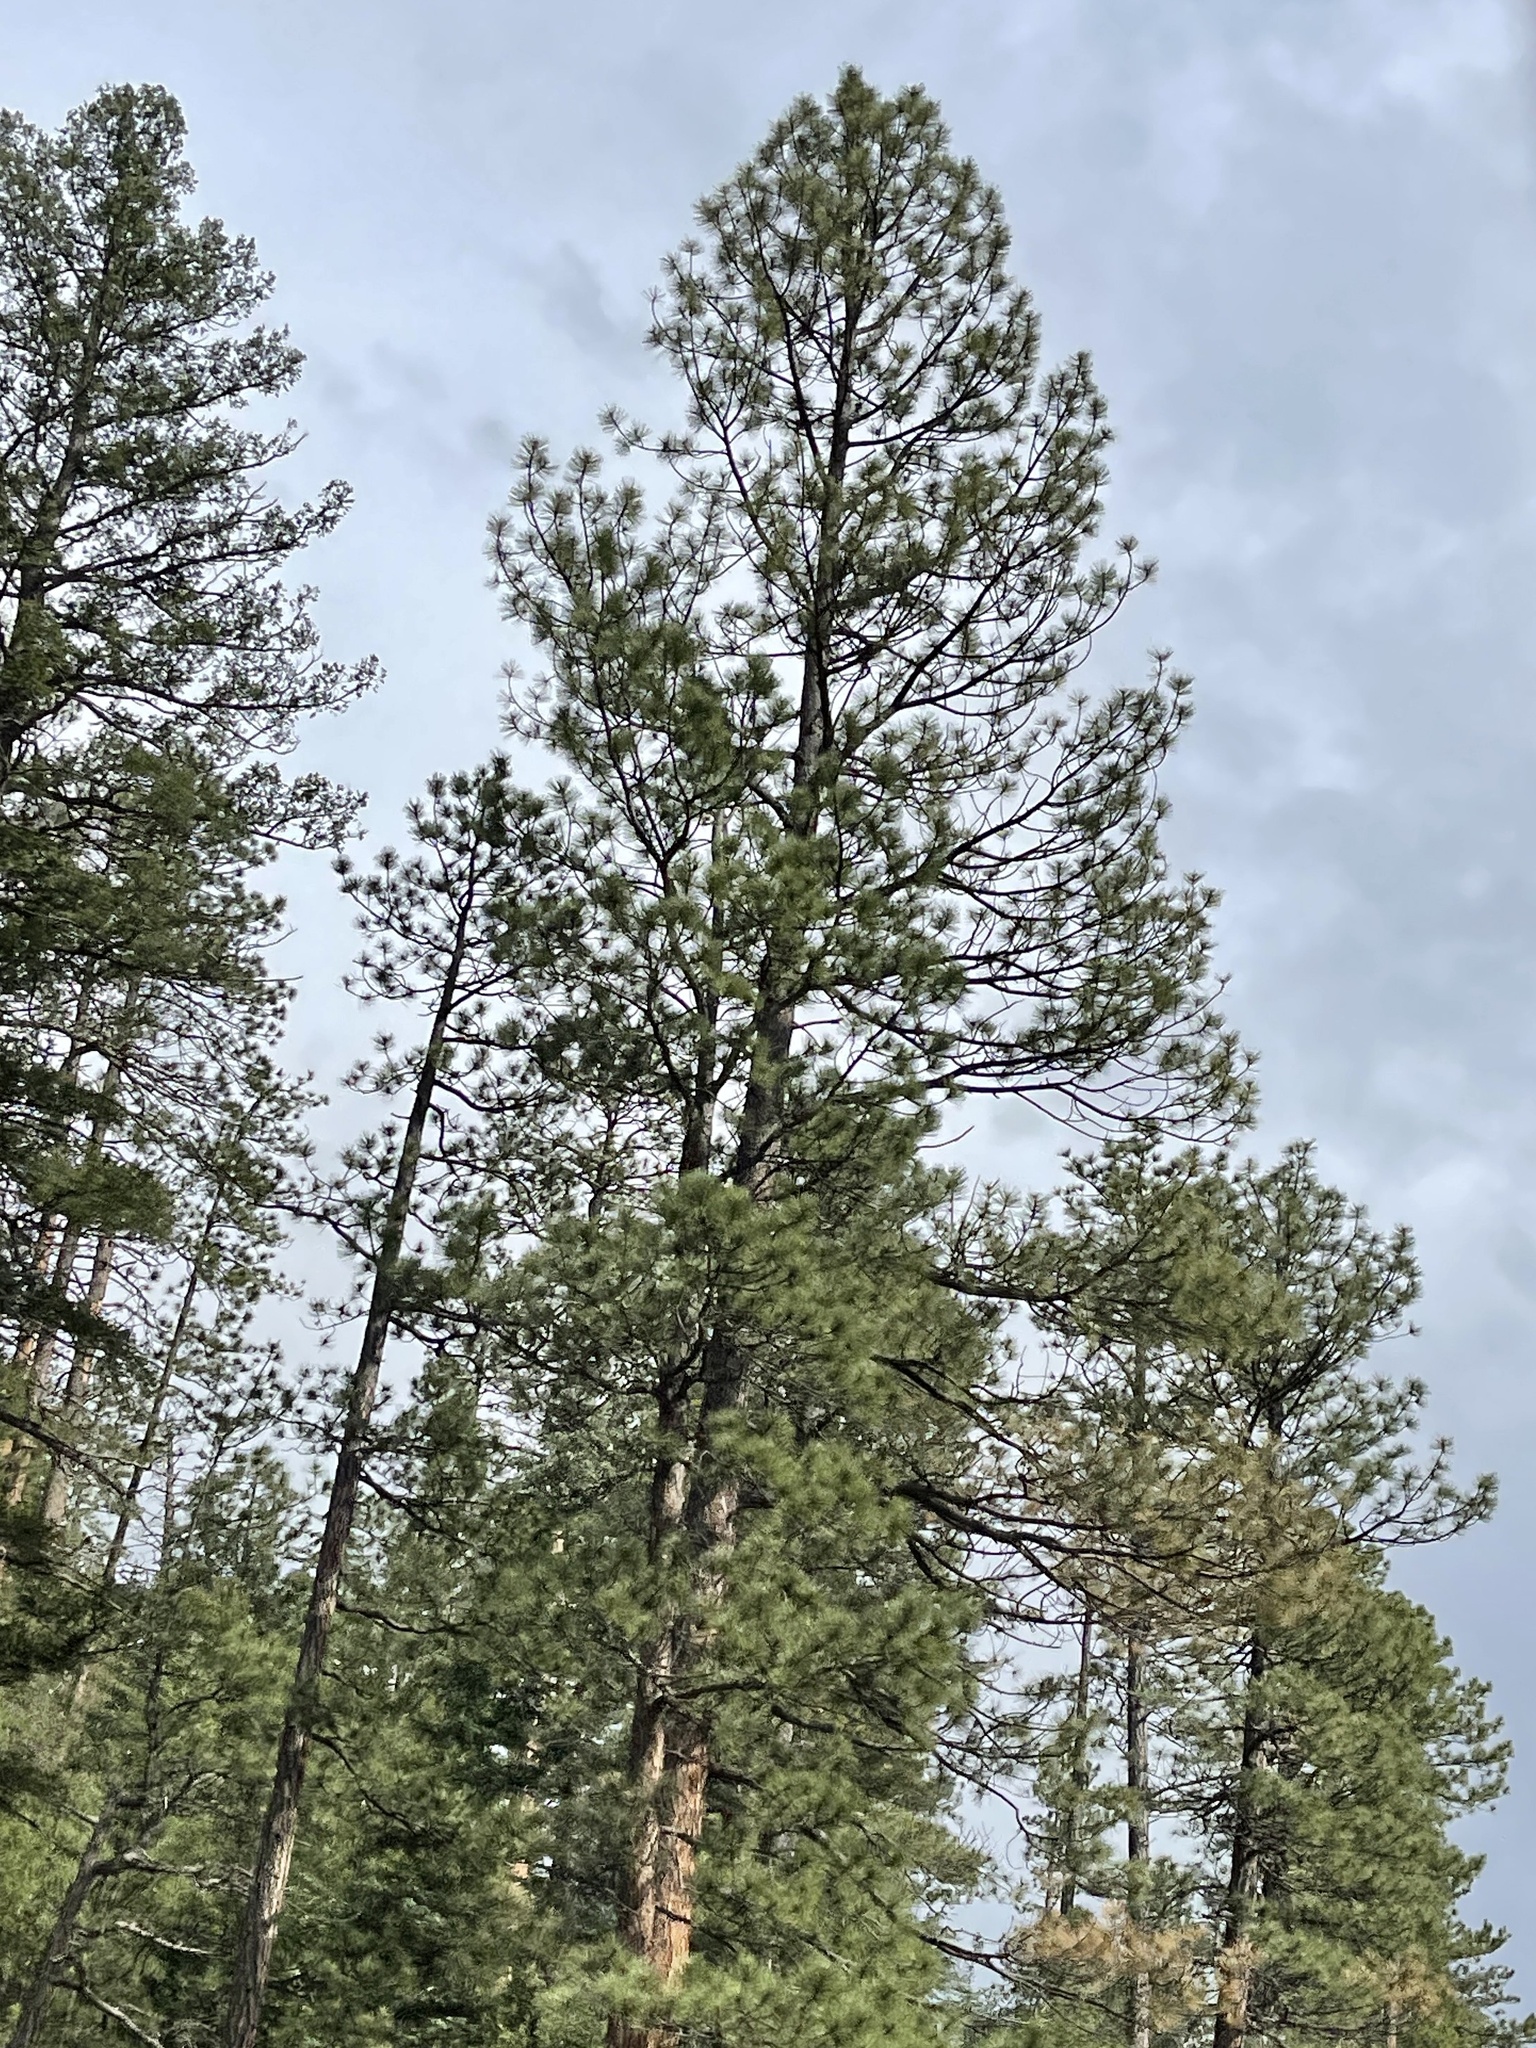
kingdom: Plantae
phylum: Tracheophyta
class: Pinopsida
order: Pinales
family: Pinaceae
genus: Pinus
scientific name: Pinus ponderosa
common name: Western yellow-pine
